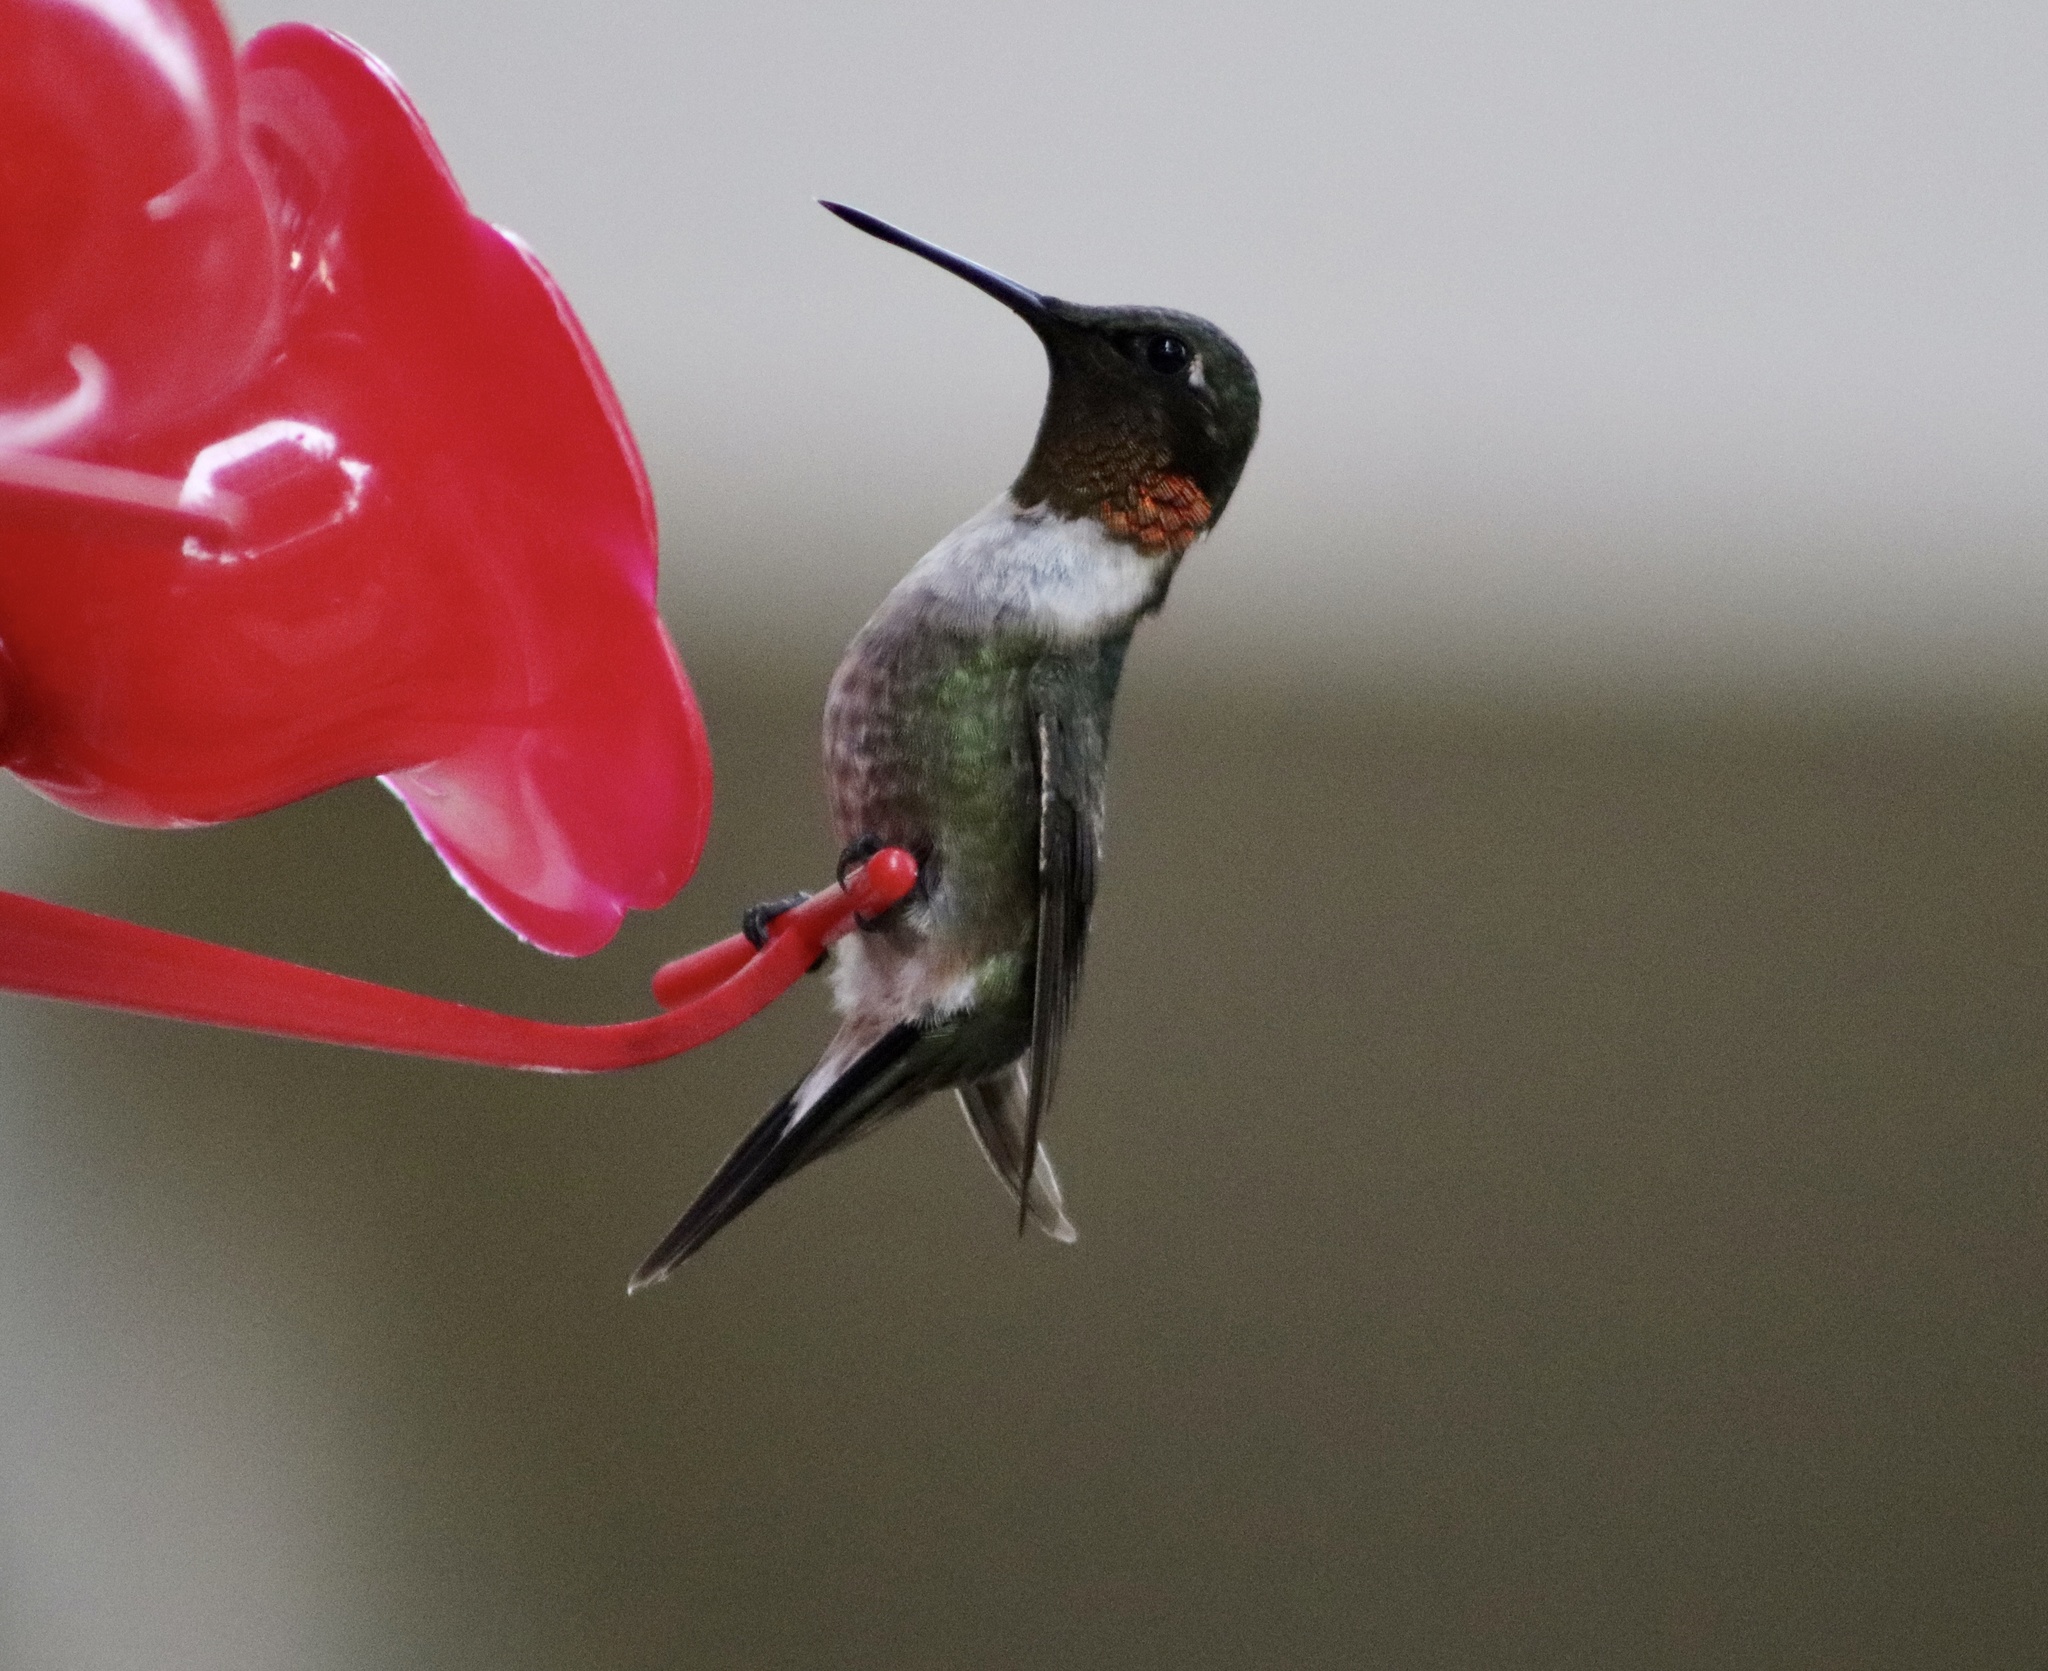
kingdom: Animalia
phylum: Chordata
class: Aves
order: Apodiformes
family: Trochilidae
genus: Archilochus
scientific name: Archilochus colubris
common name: Ruby-throated hummingbird
